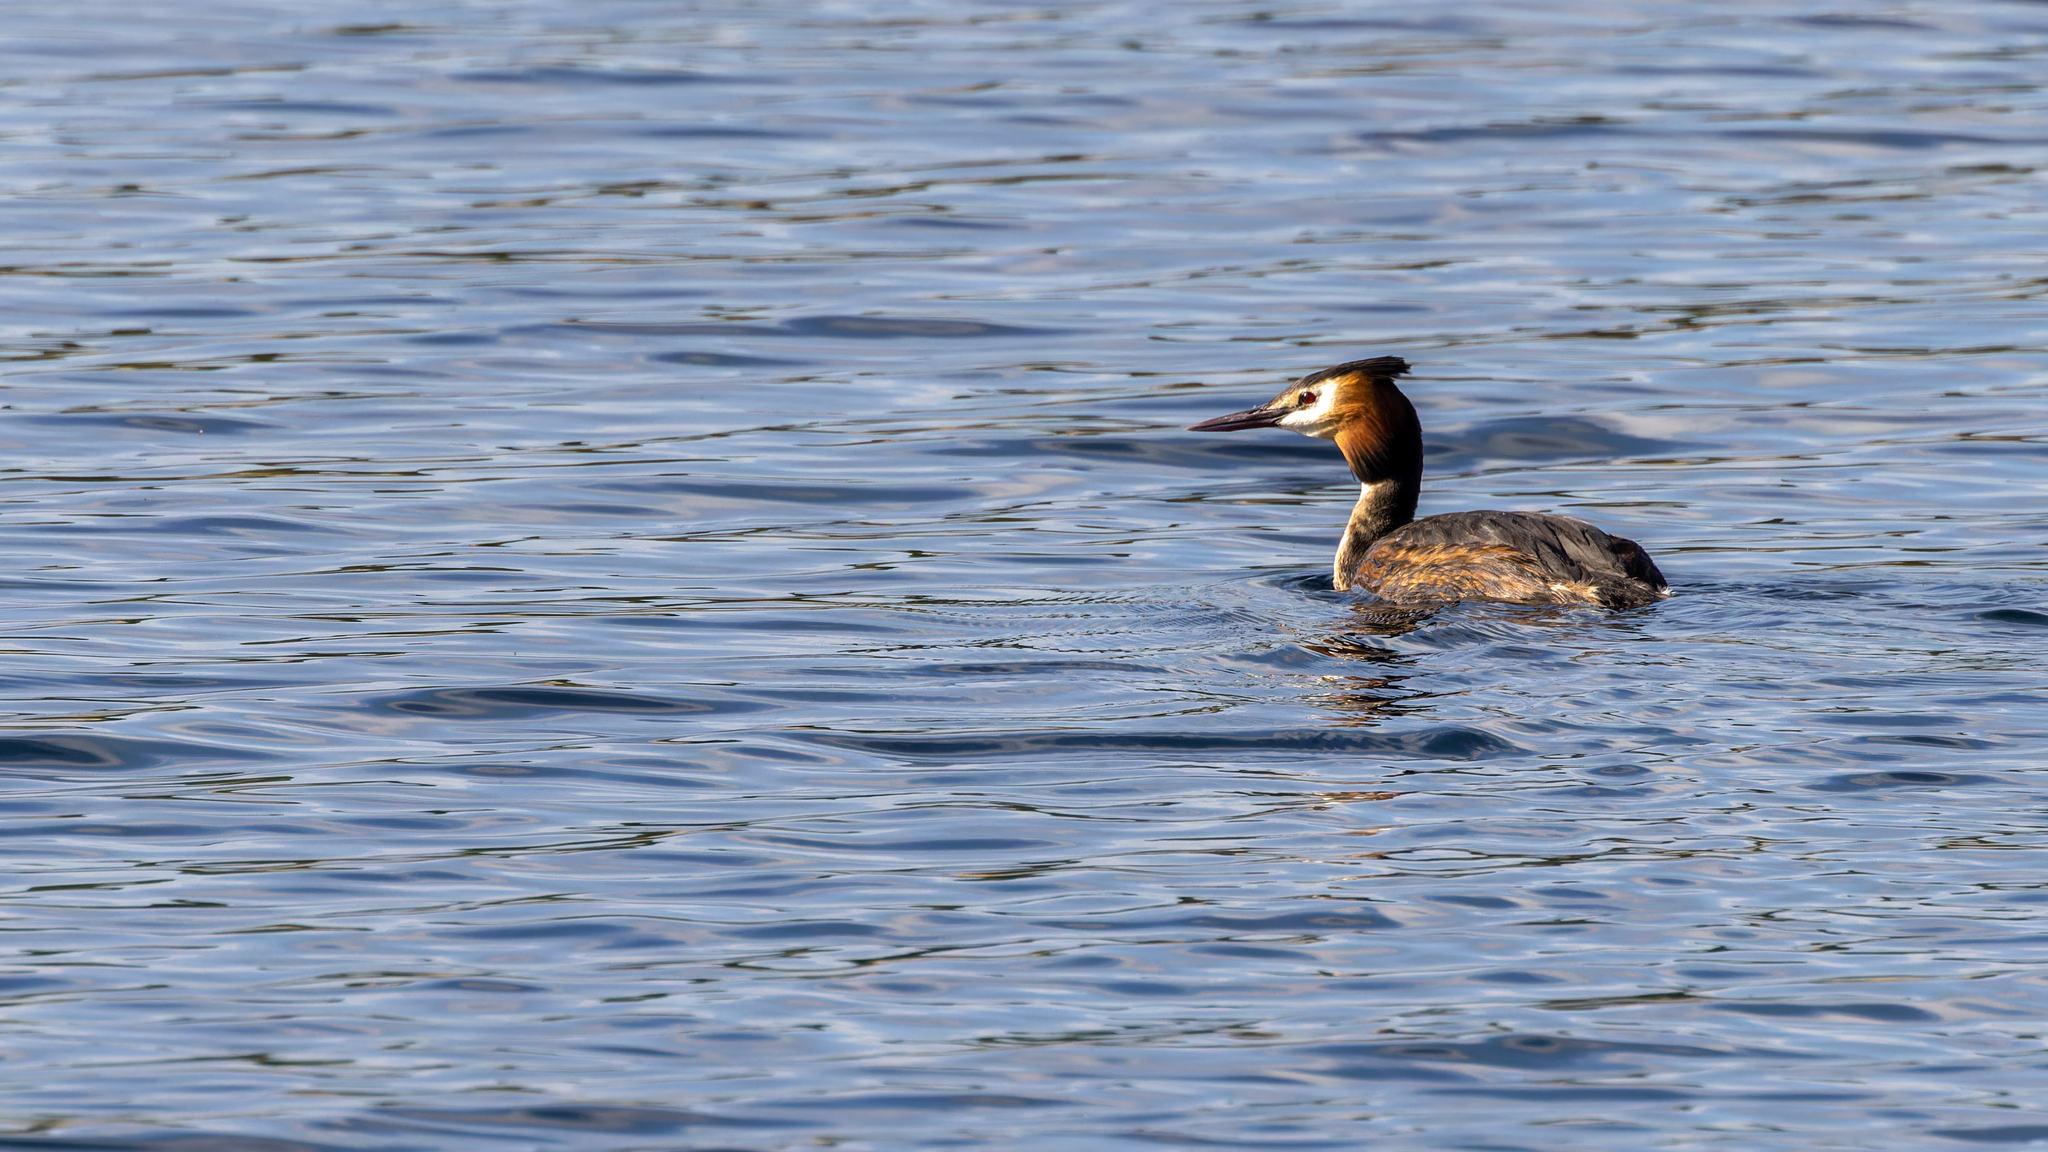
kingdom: Animalia
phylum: Chordata
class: Aves
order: Podicipediformes
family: Podicipedidae
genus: Podiceps
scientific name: Podiceps cristatus
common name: Great crested grebe
